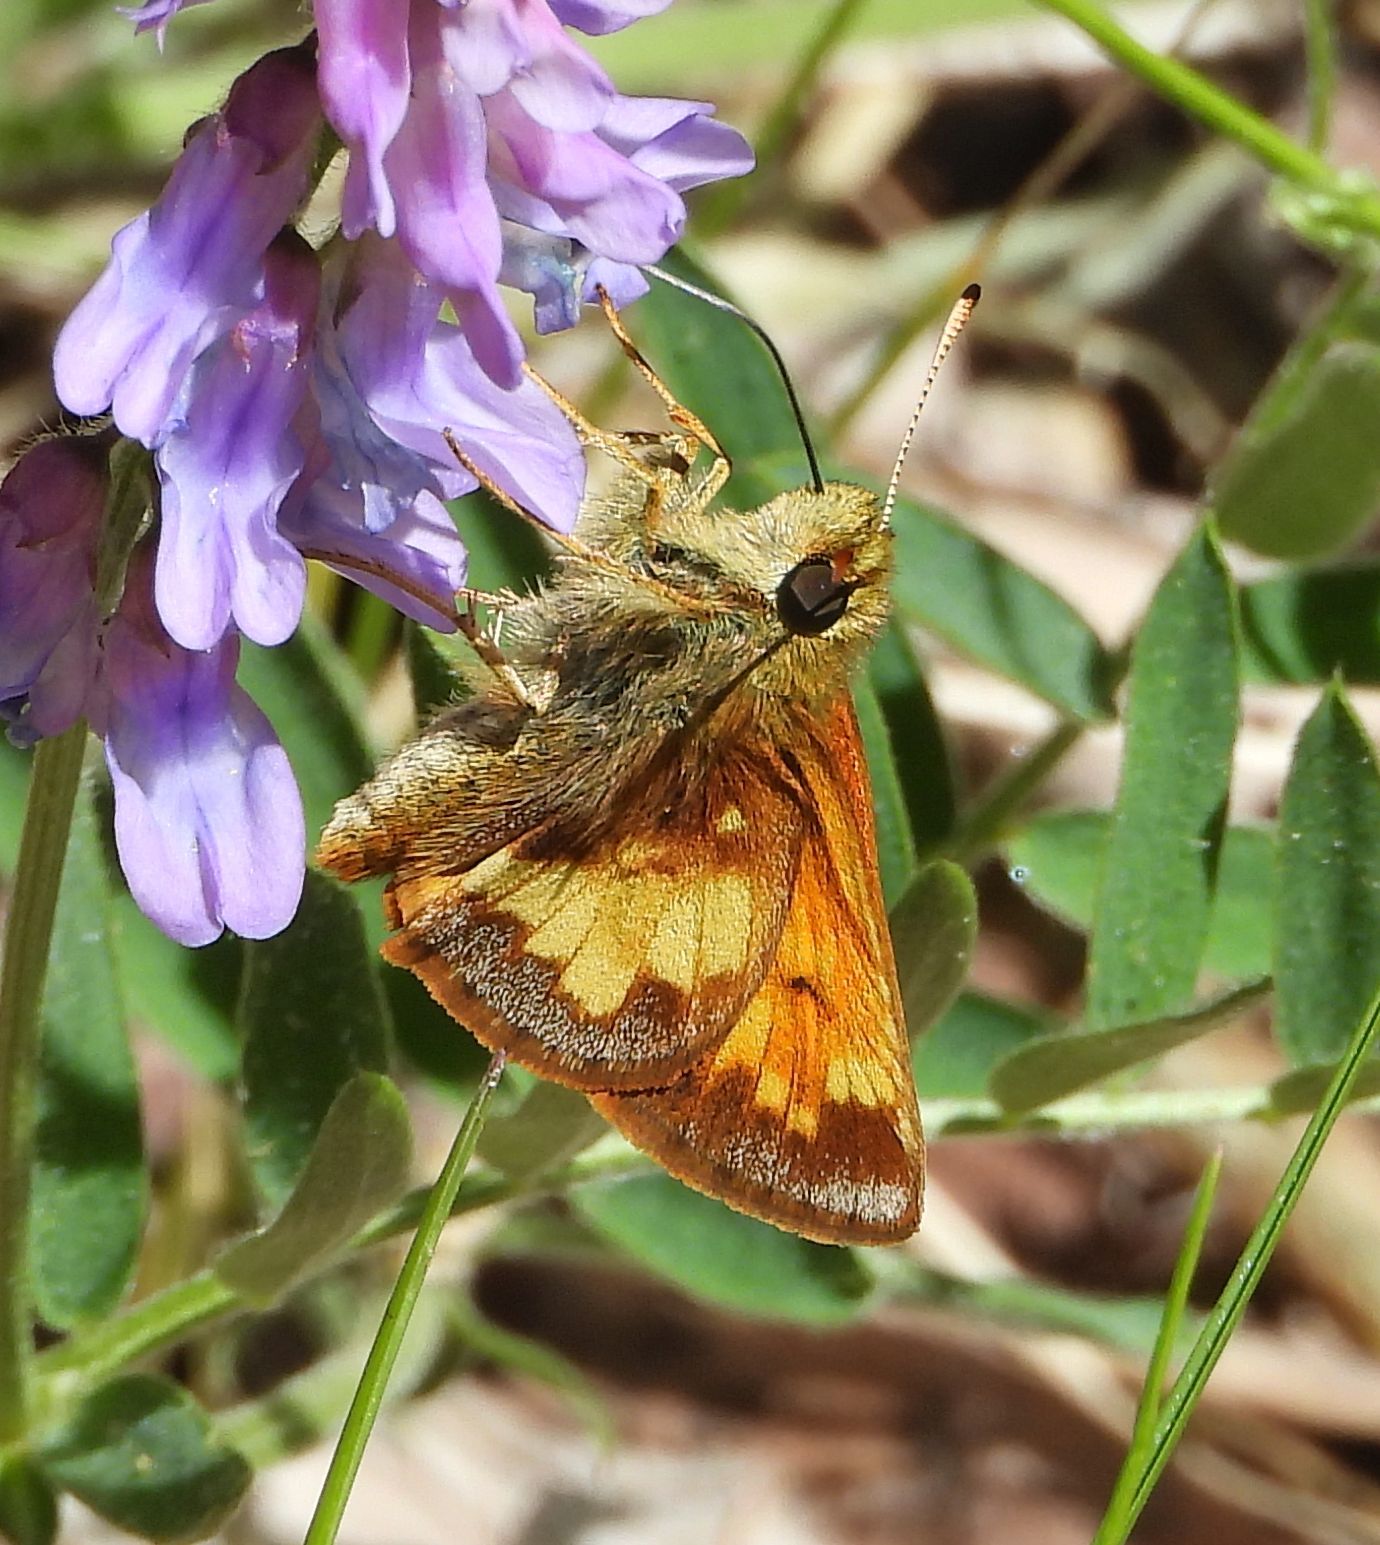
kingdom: Animalia
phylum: Arthropoda
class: Insecta
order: Lepidoptera
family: Hesperiidae
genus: Lon
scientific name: Lon hobomok
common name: Hobomok skipper
